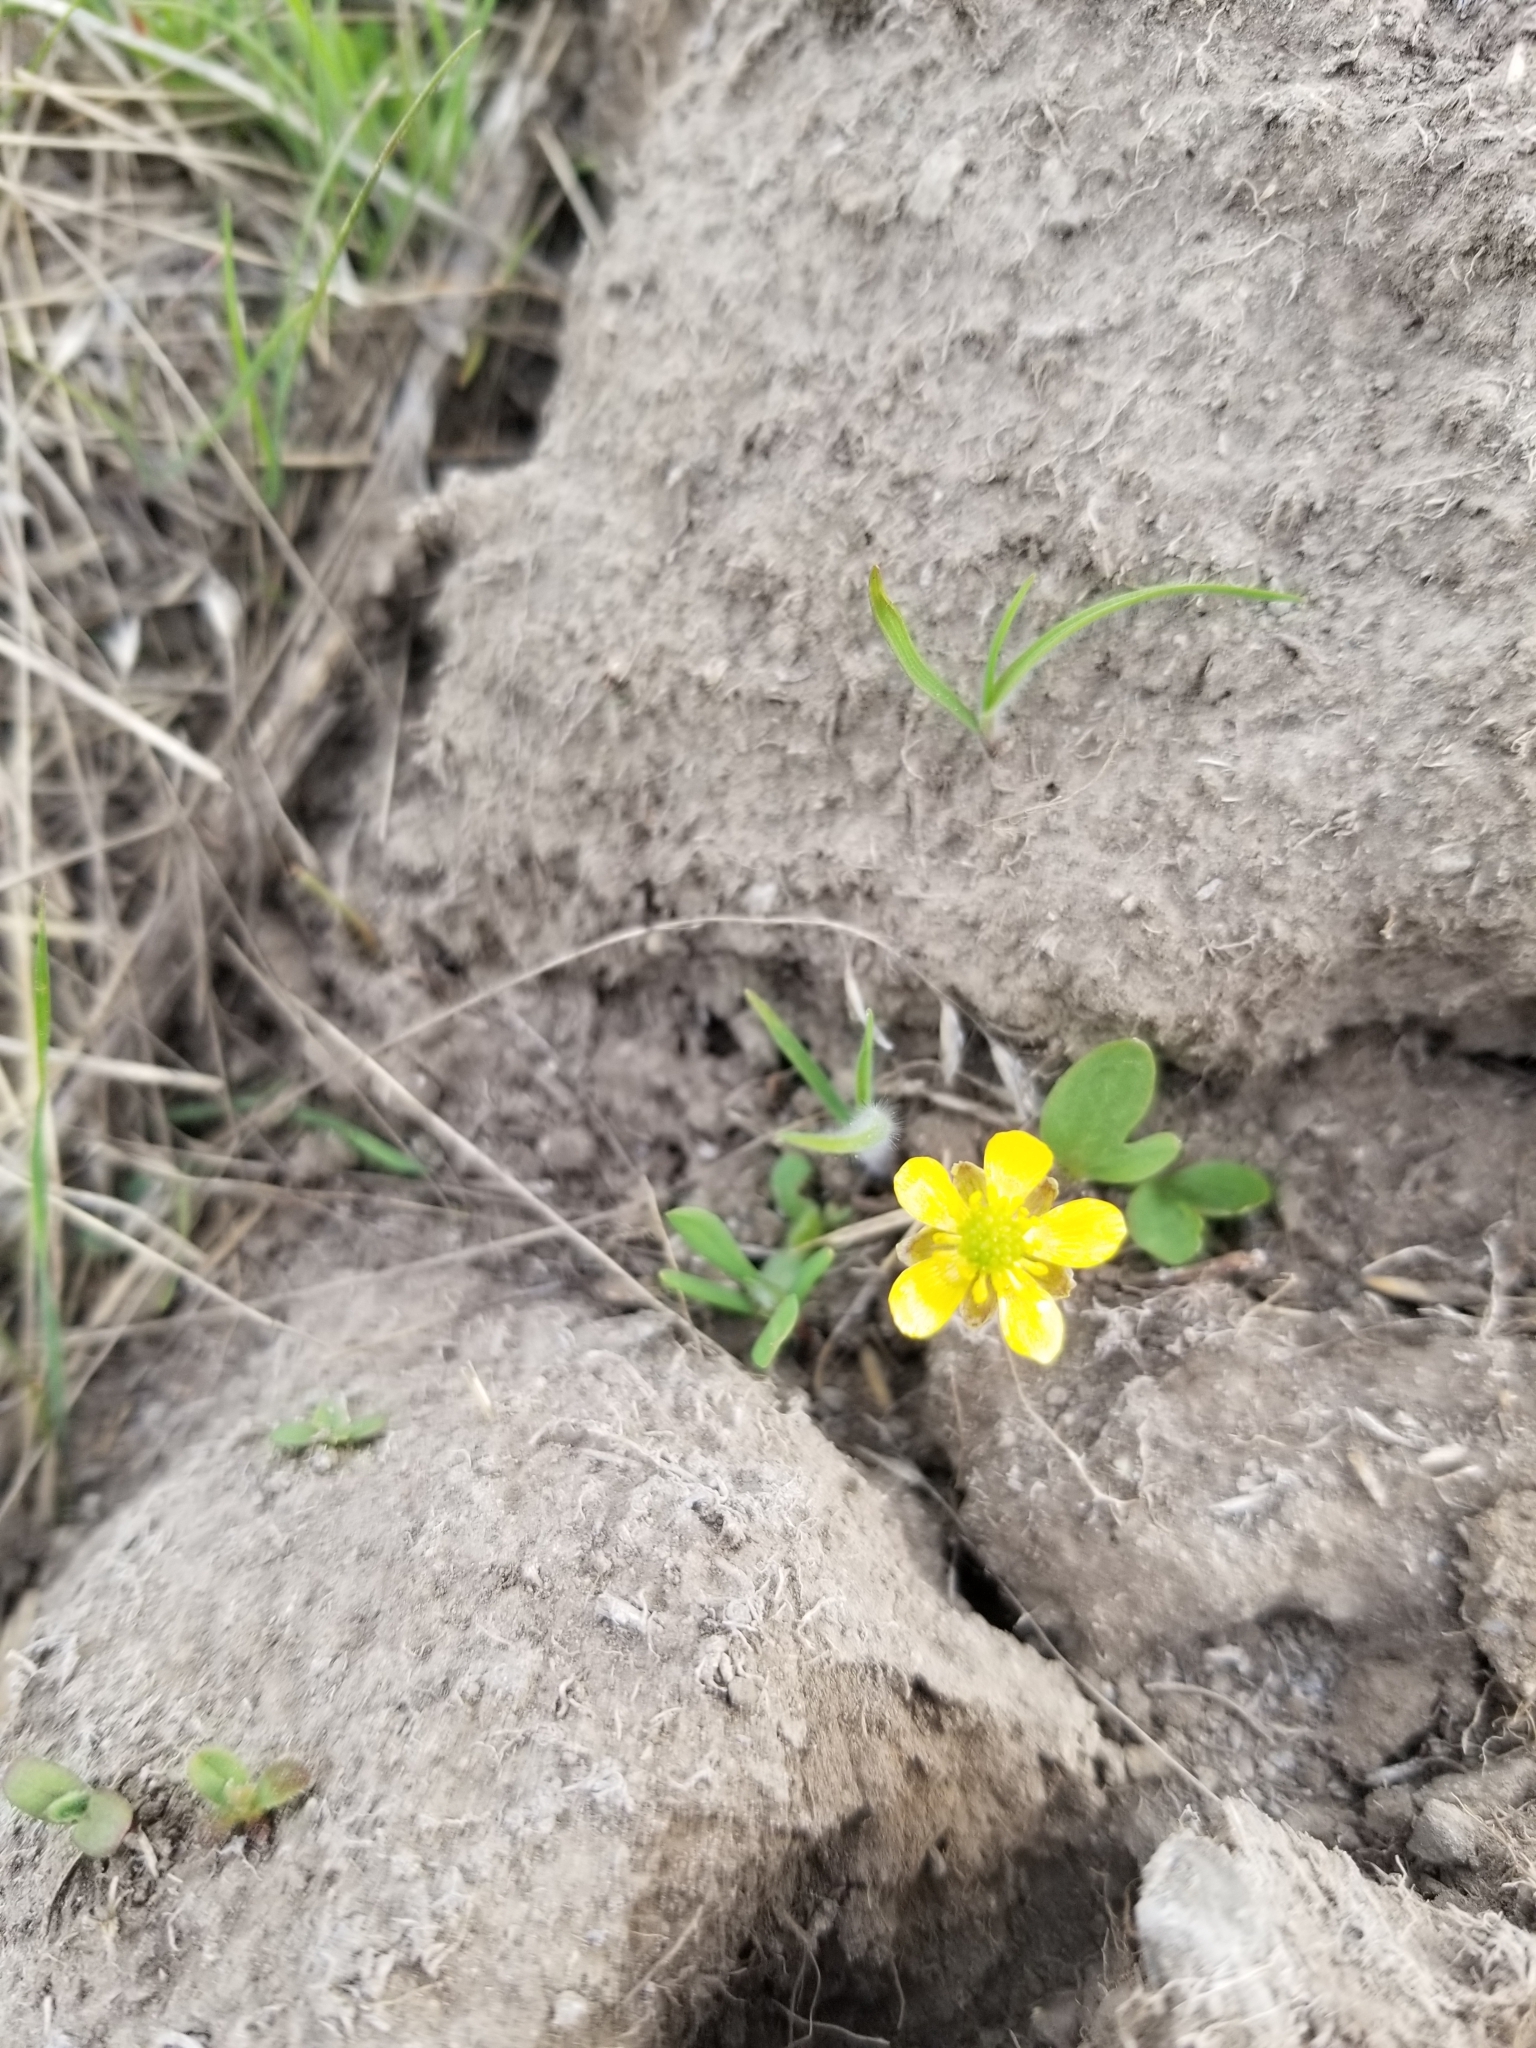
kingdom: Plantae
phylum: Tracheophyta
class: Magnoliopsida
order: Ranunculales
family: Ranunculaceae
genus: Ranunculus
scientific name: Ranunculus glaberrimus
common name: Sagebrush buttercup
